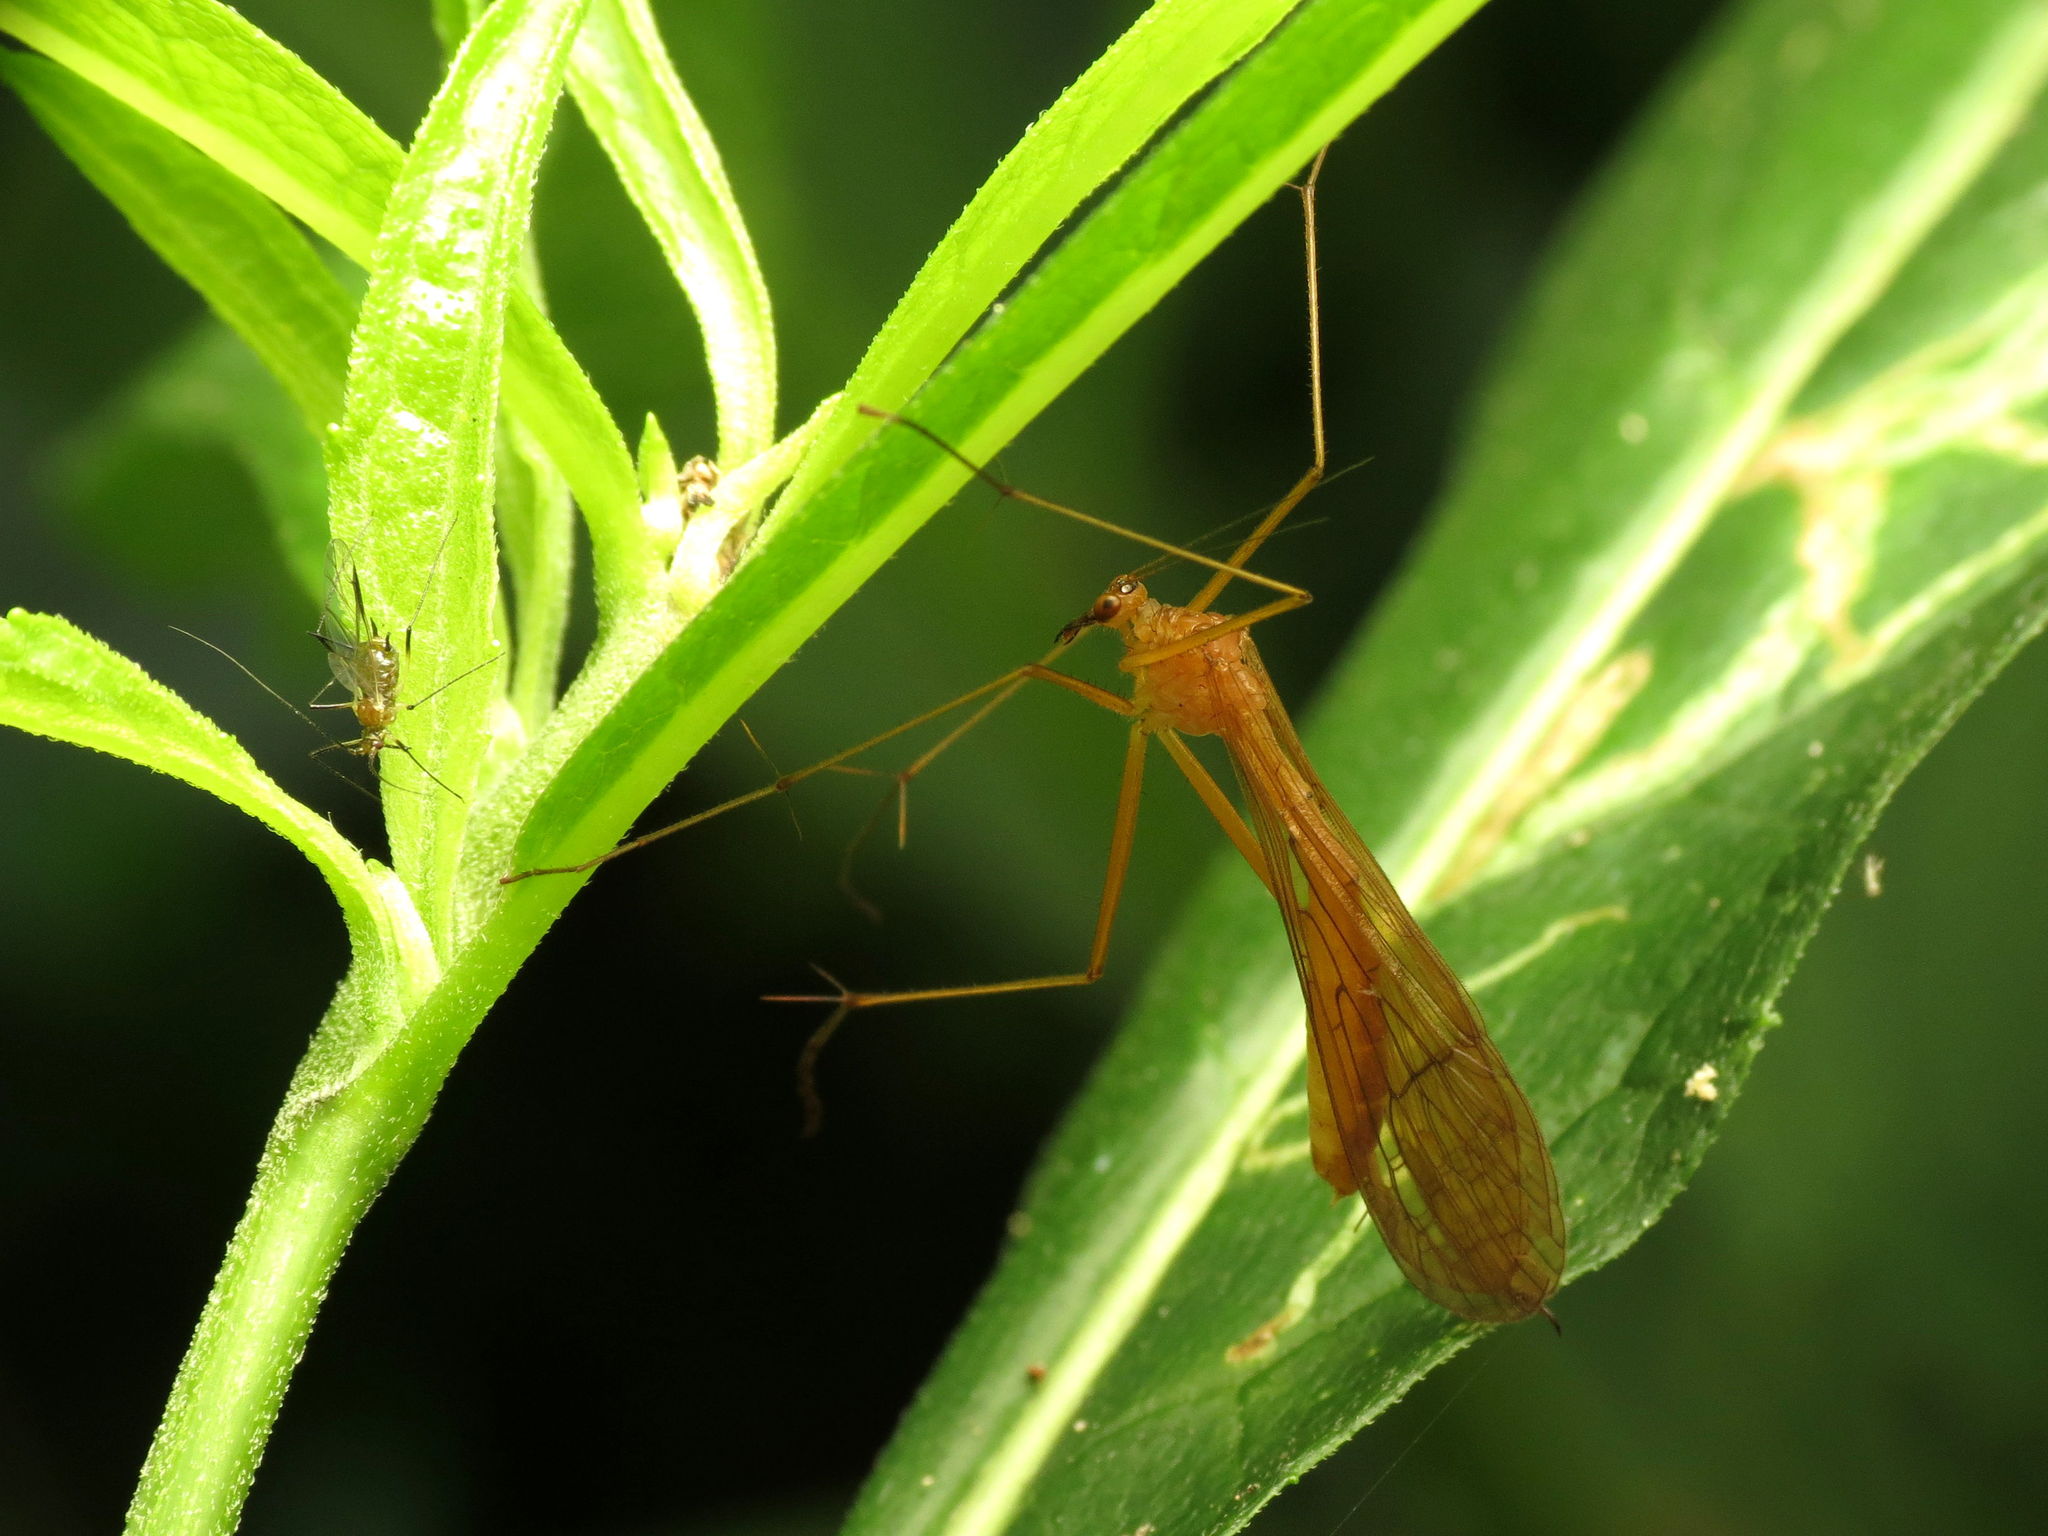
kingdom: Animalia
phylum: Arthropoda
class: Insecta
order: Mecoptera
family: Bittacidae
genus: Bittacus
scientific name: Bittacus occidentis
